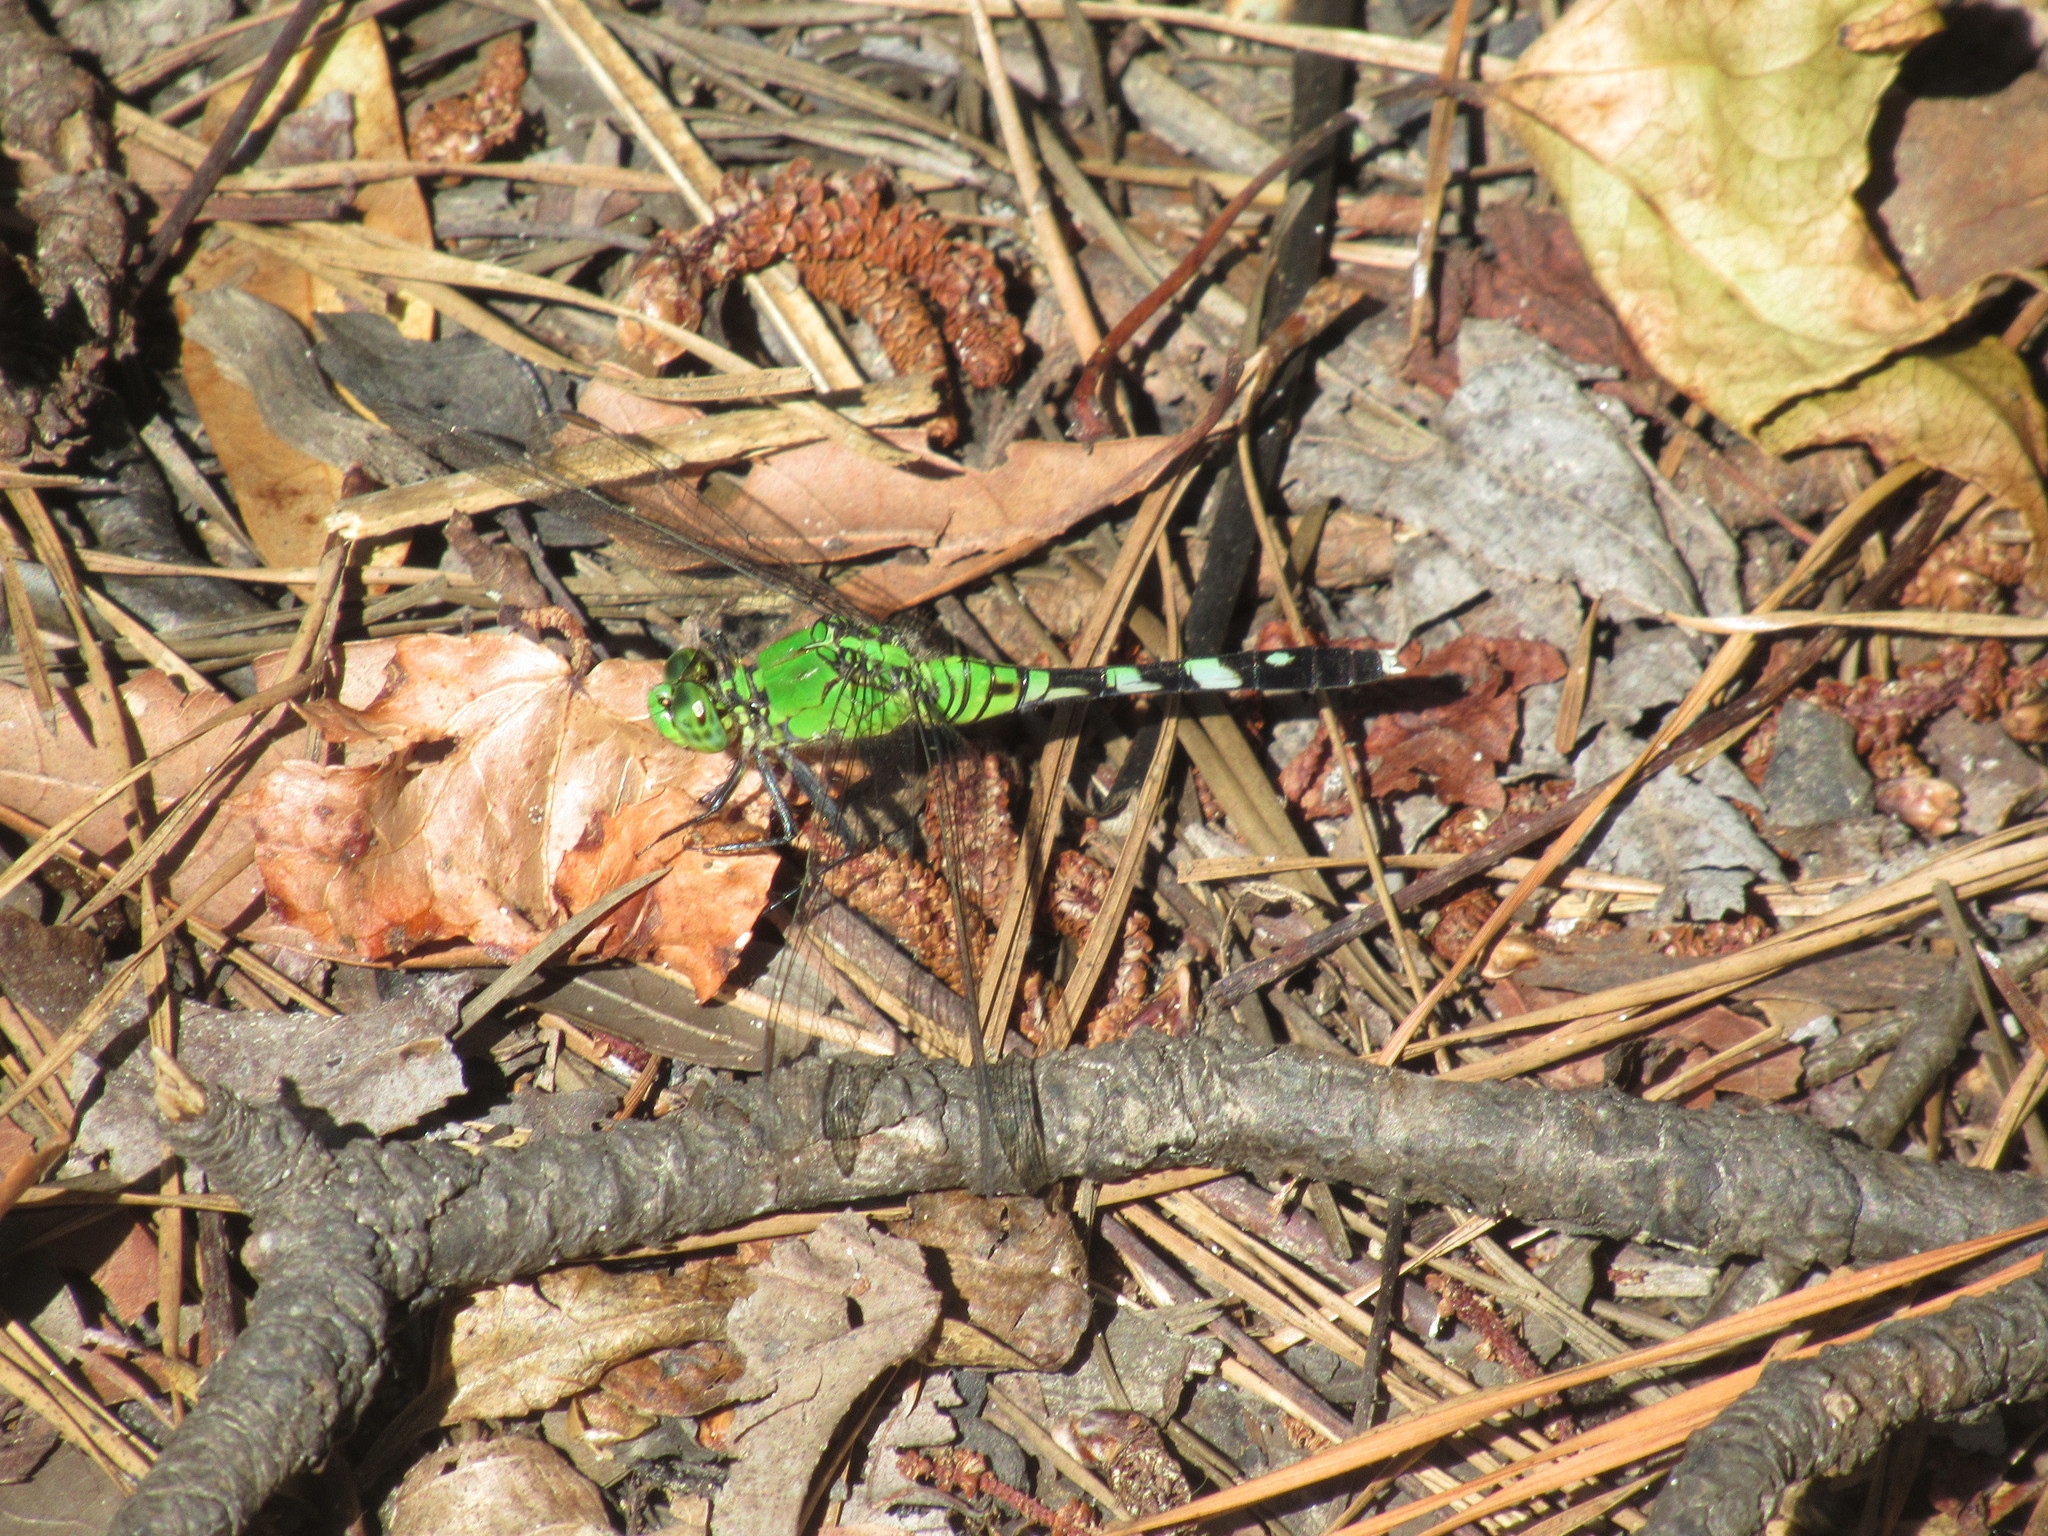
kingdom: Animalia
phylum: Arthropoda
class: Insecta
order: Odonata
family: Libellulidae
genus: Erythemis
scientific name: Erythemis simplicicollis
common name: Eastern pondhawk
